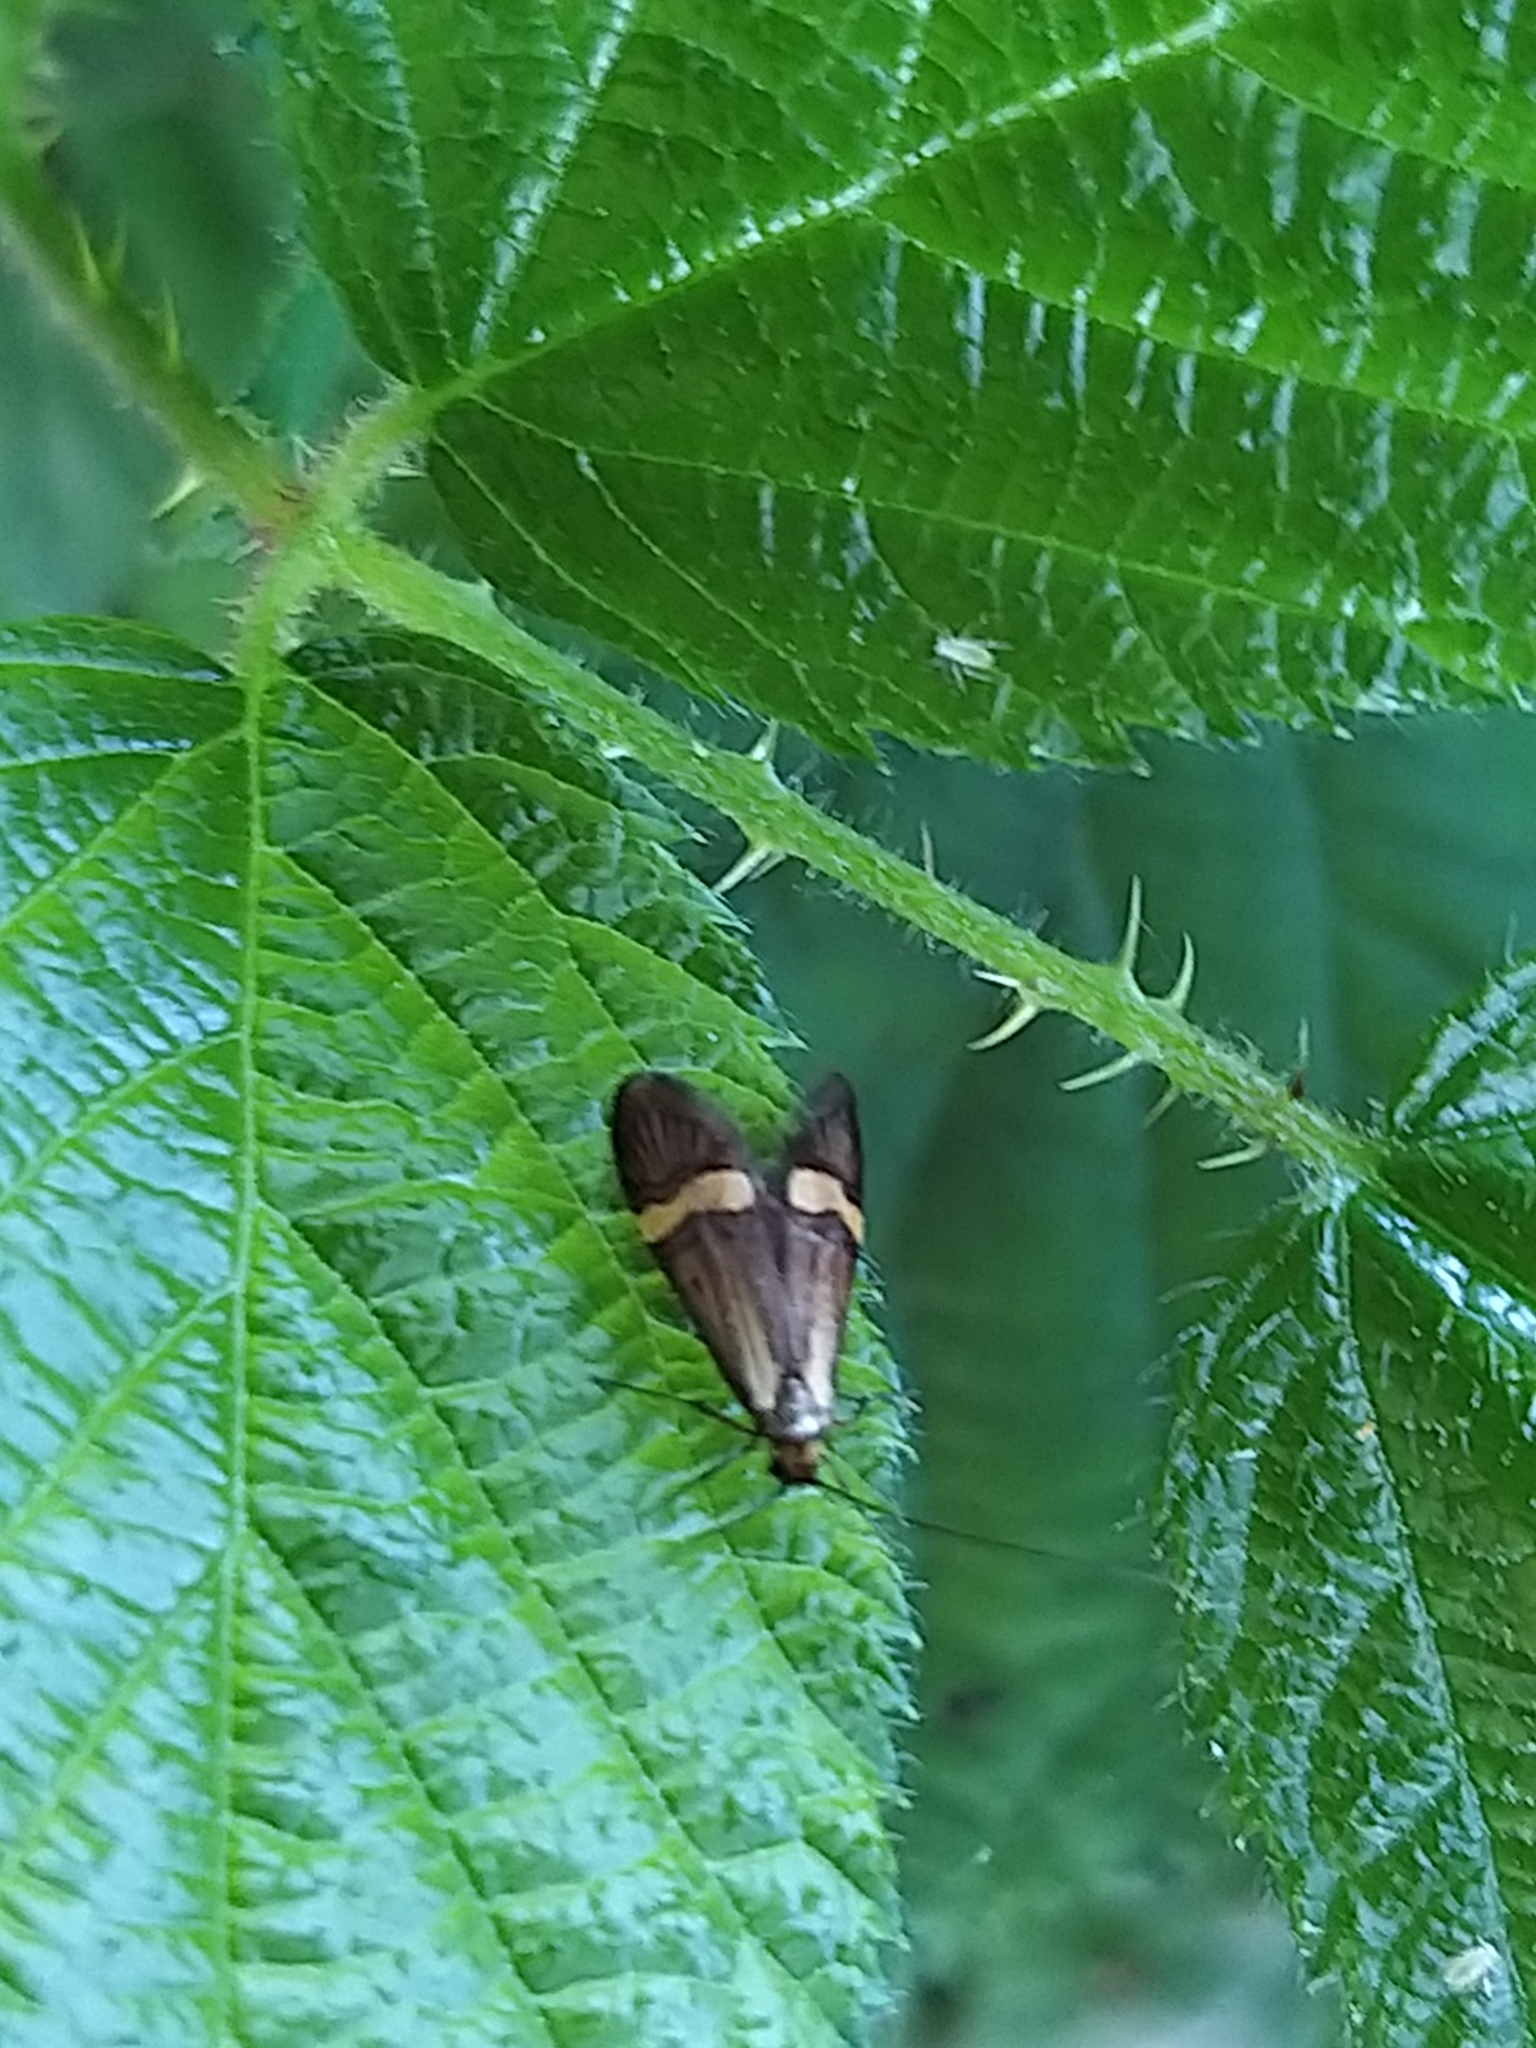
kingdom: Animalia
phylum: Arthropoda
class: Insecta
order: Lepidoptera
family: Adelidae
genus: Nemophora
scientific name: Nemophora degeerella
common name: Yellow-barred long-horn
